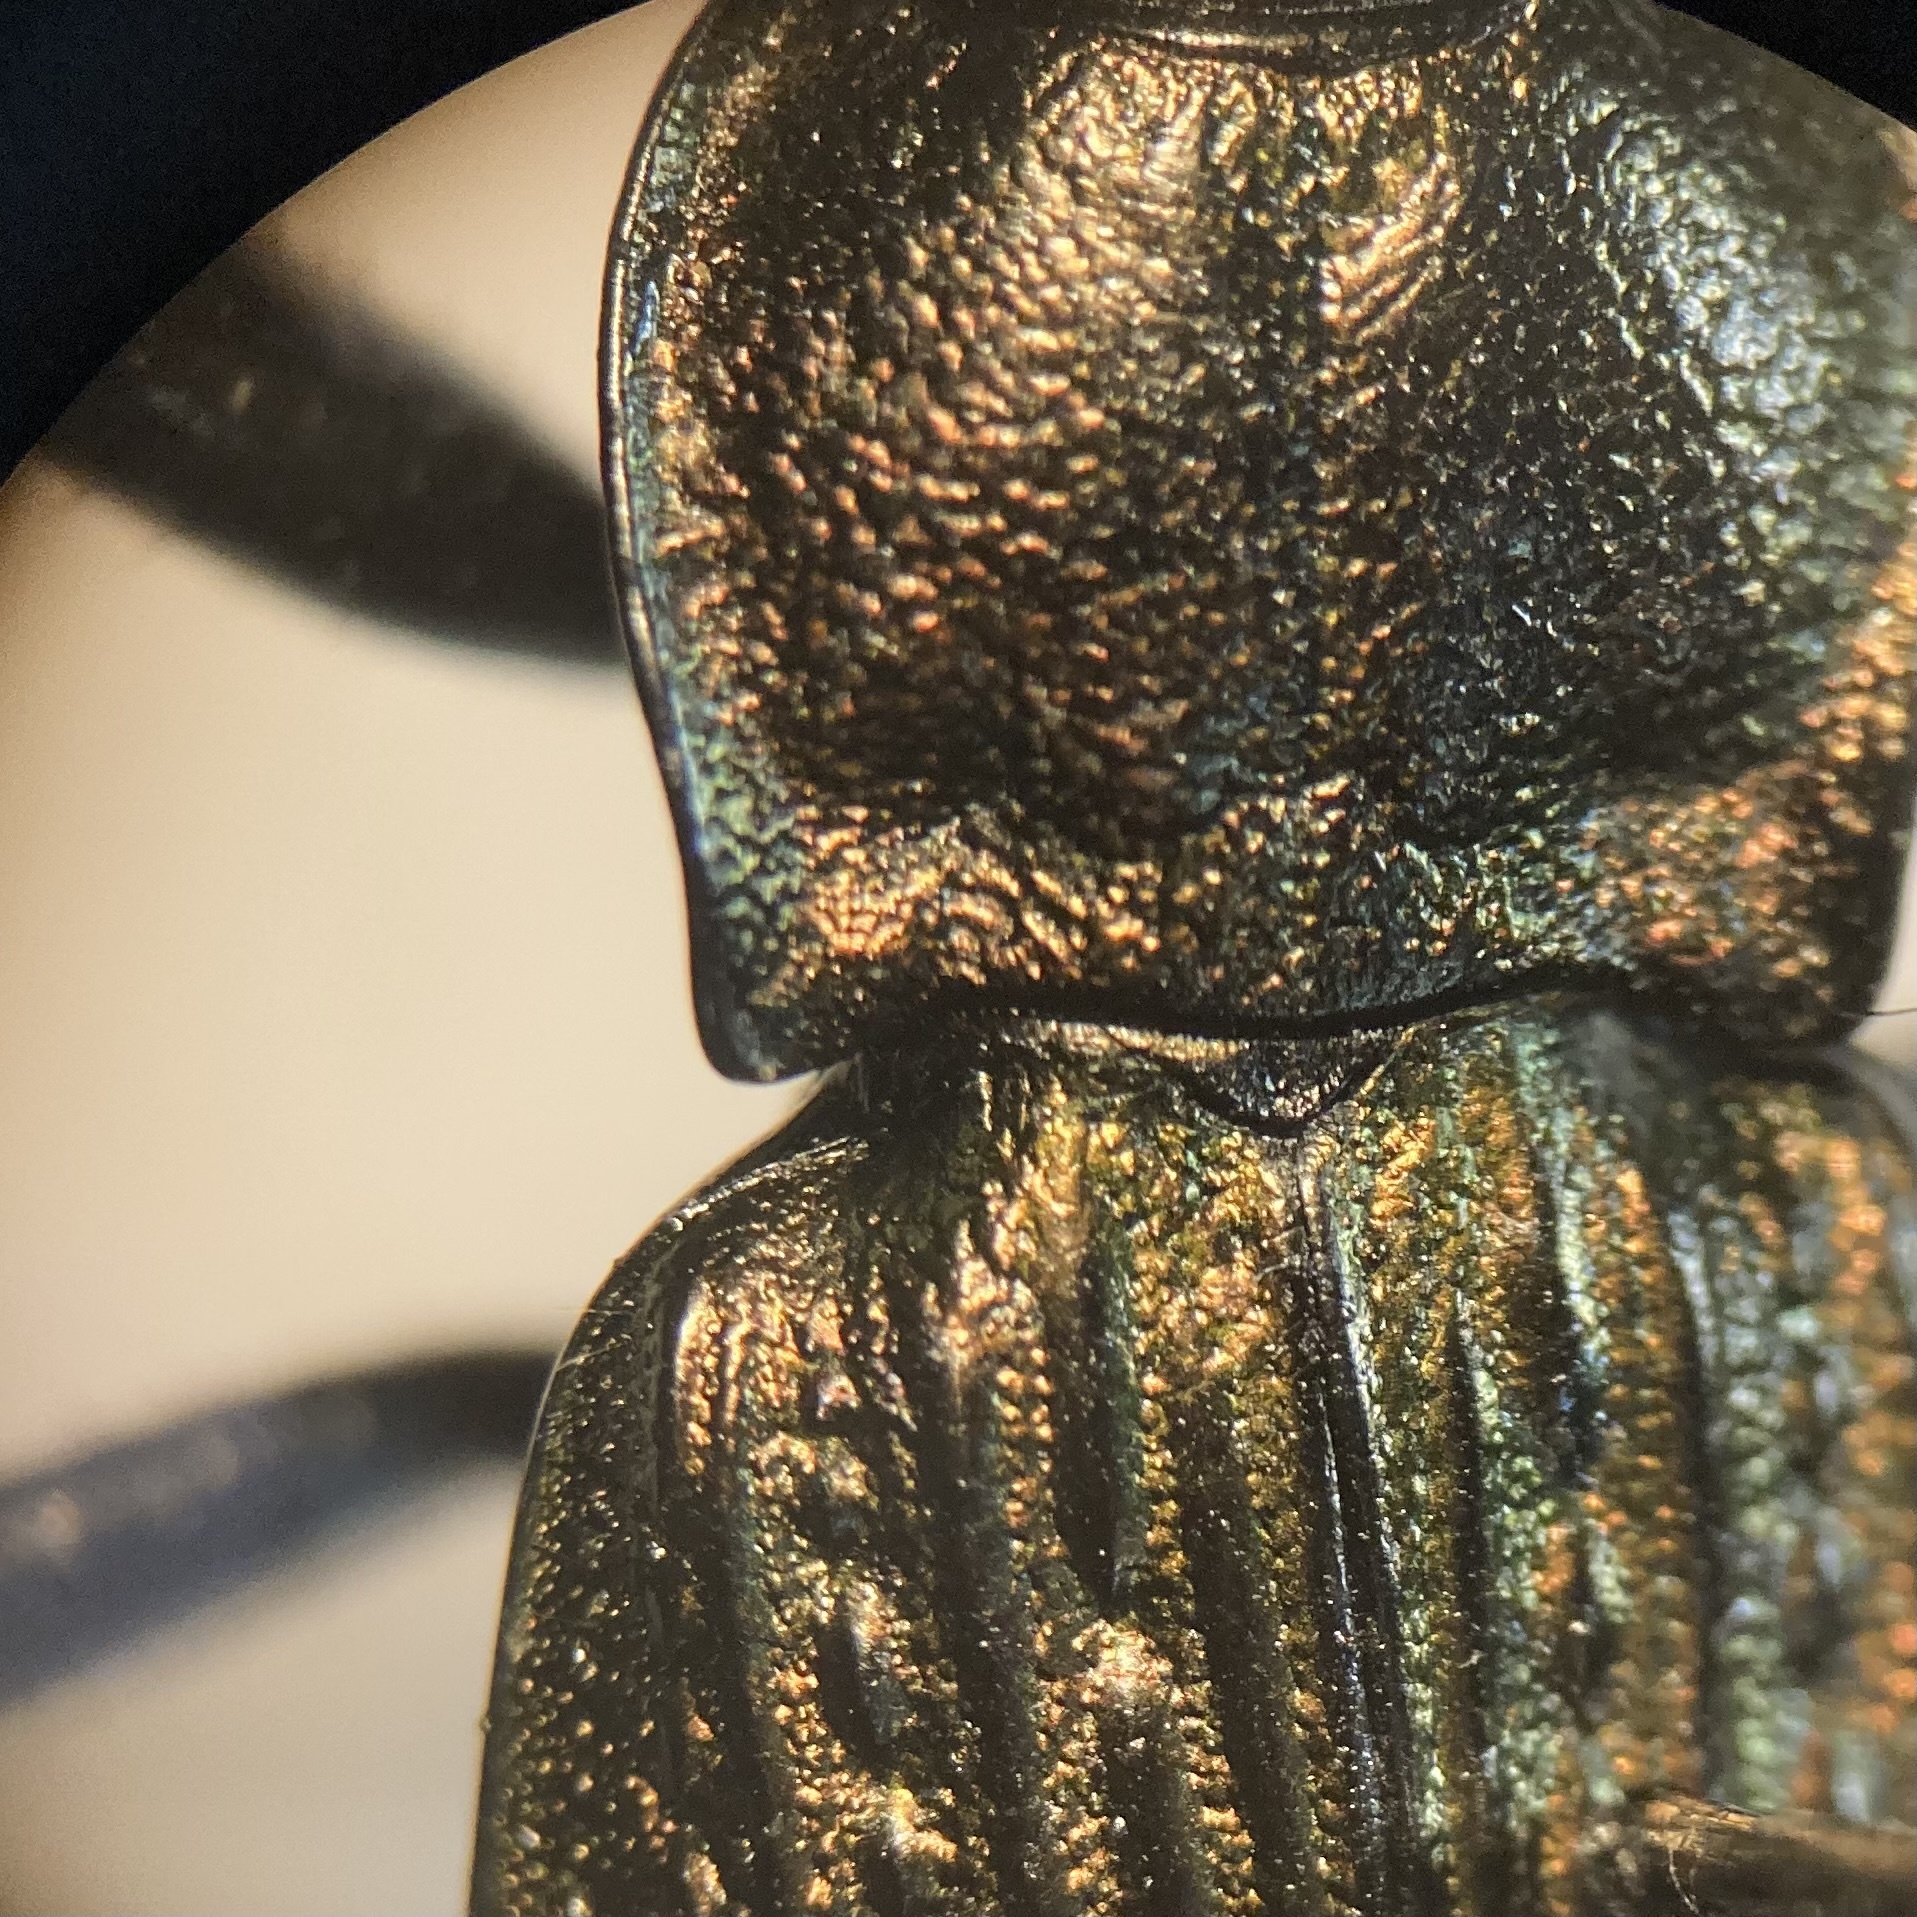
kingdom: Animalia
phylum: Arthropoda
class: Insecta
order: Coleoptera
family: Carabidae
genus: Carabus
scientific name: Carabus granulatus
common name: Granulate ground beetle
